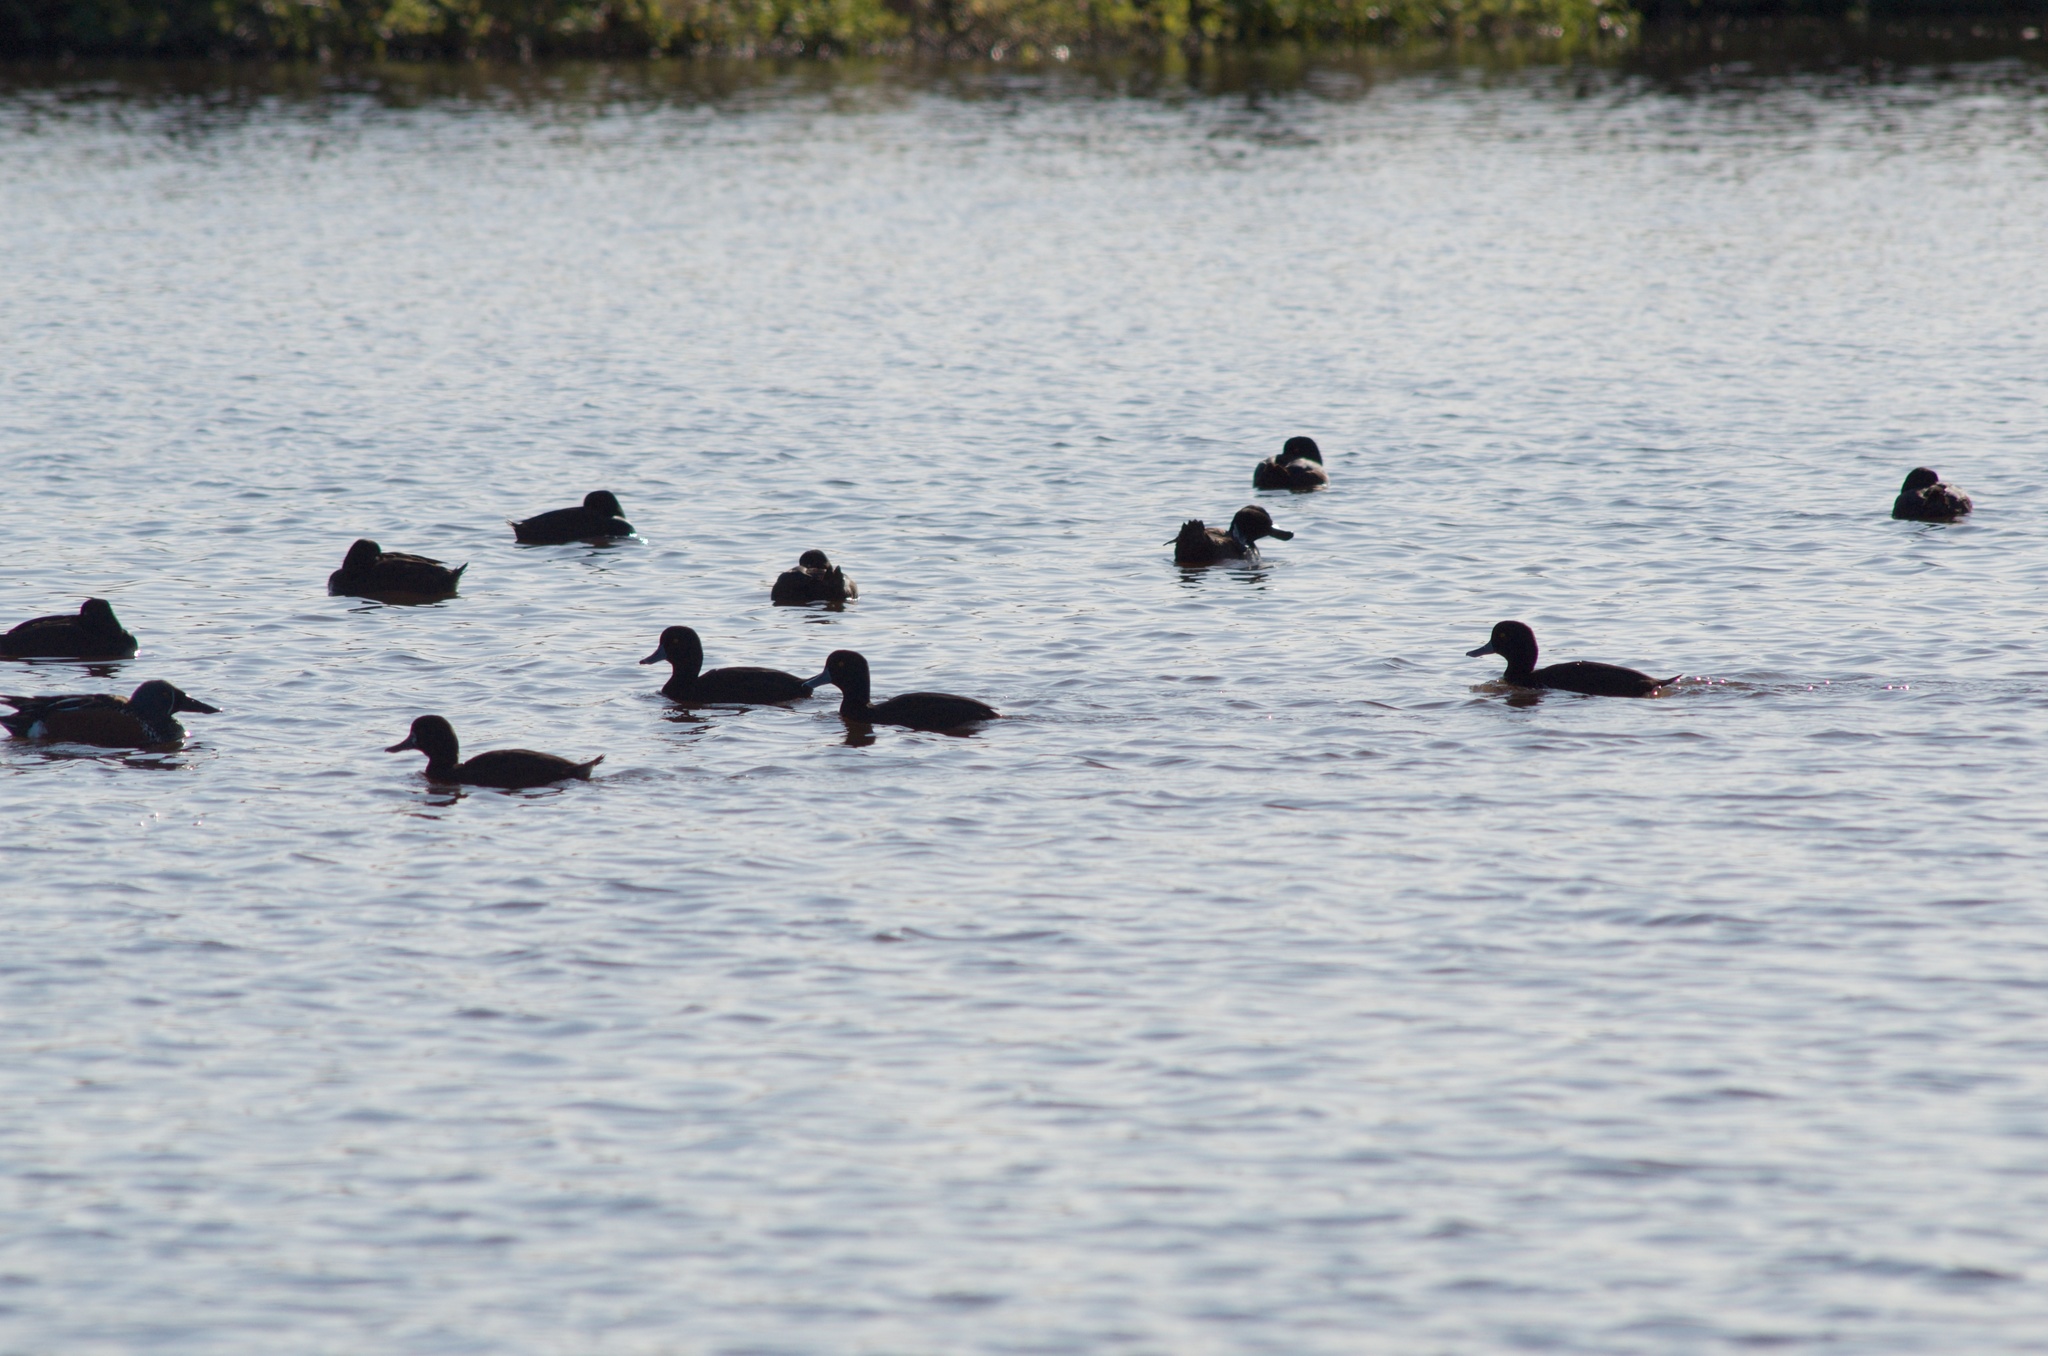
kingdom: Animalia
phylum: Chordata
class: Aves
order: Anseriformes
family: Anatidae
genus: Aythya
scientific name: Aythya novaeseelandiae
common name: New zealand scaup
